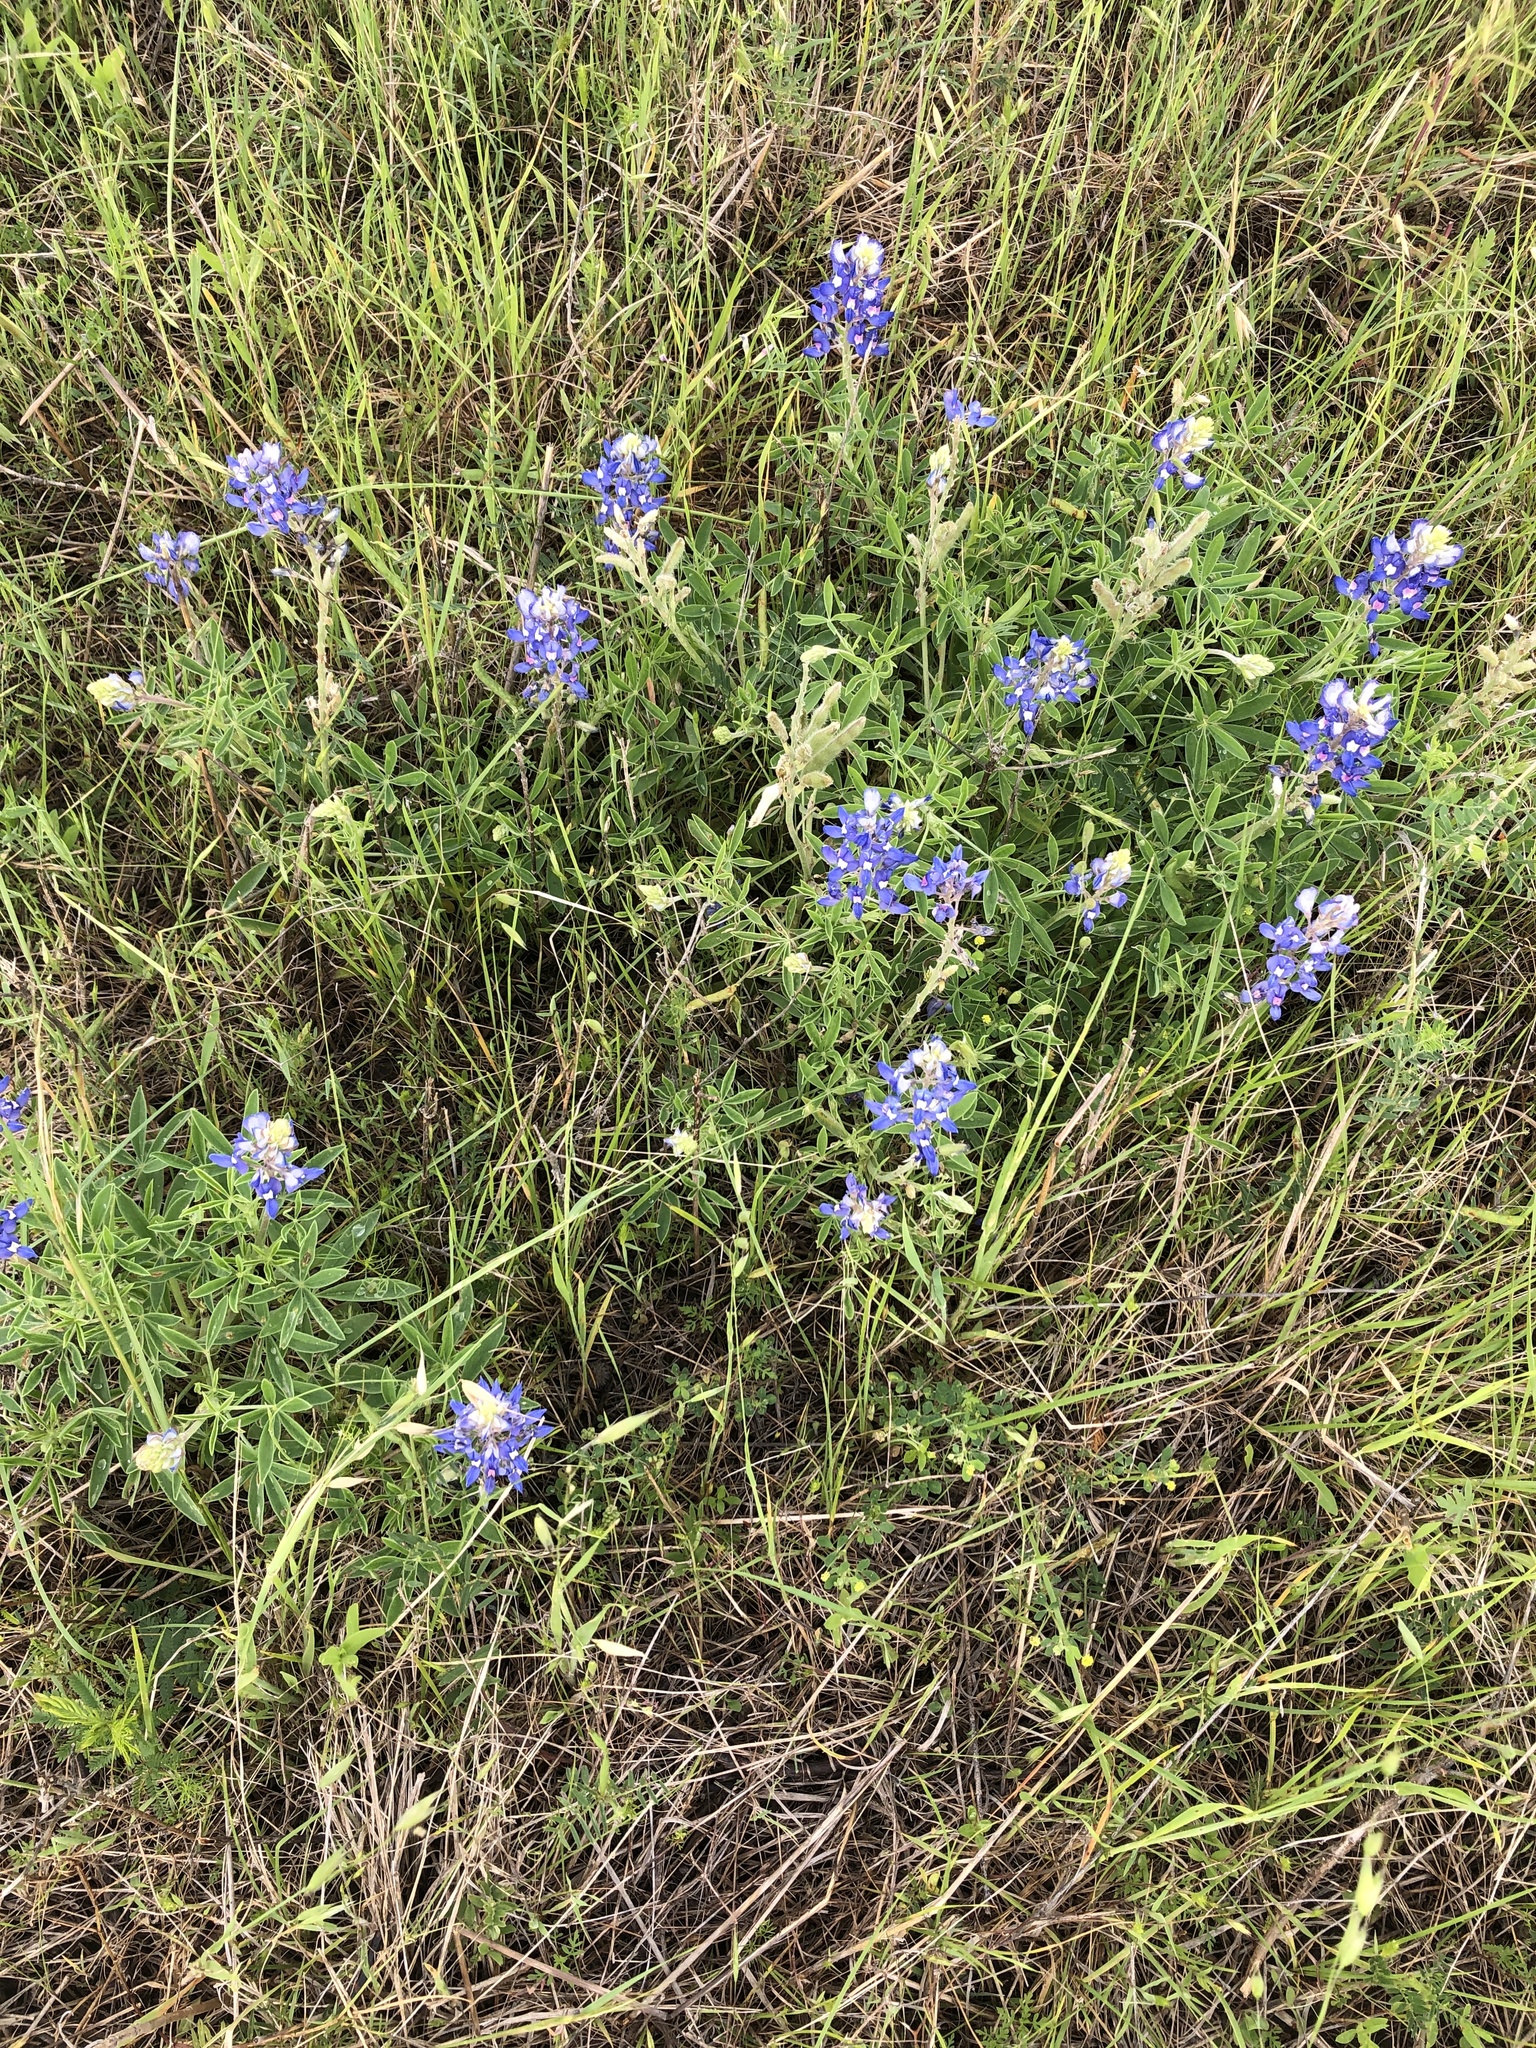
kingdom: Plantae
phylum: Tracheophyta
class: Magnoliopsida
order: Fabales
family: Fabaceae
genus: Lupinus
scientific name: Lupinus texensis
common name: Texas bluebonnet
